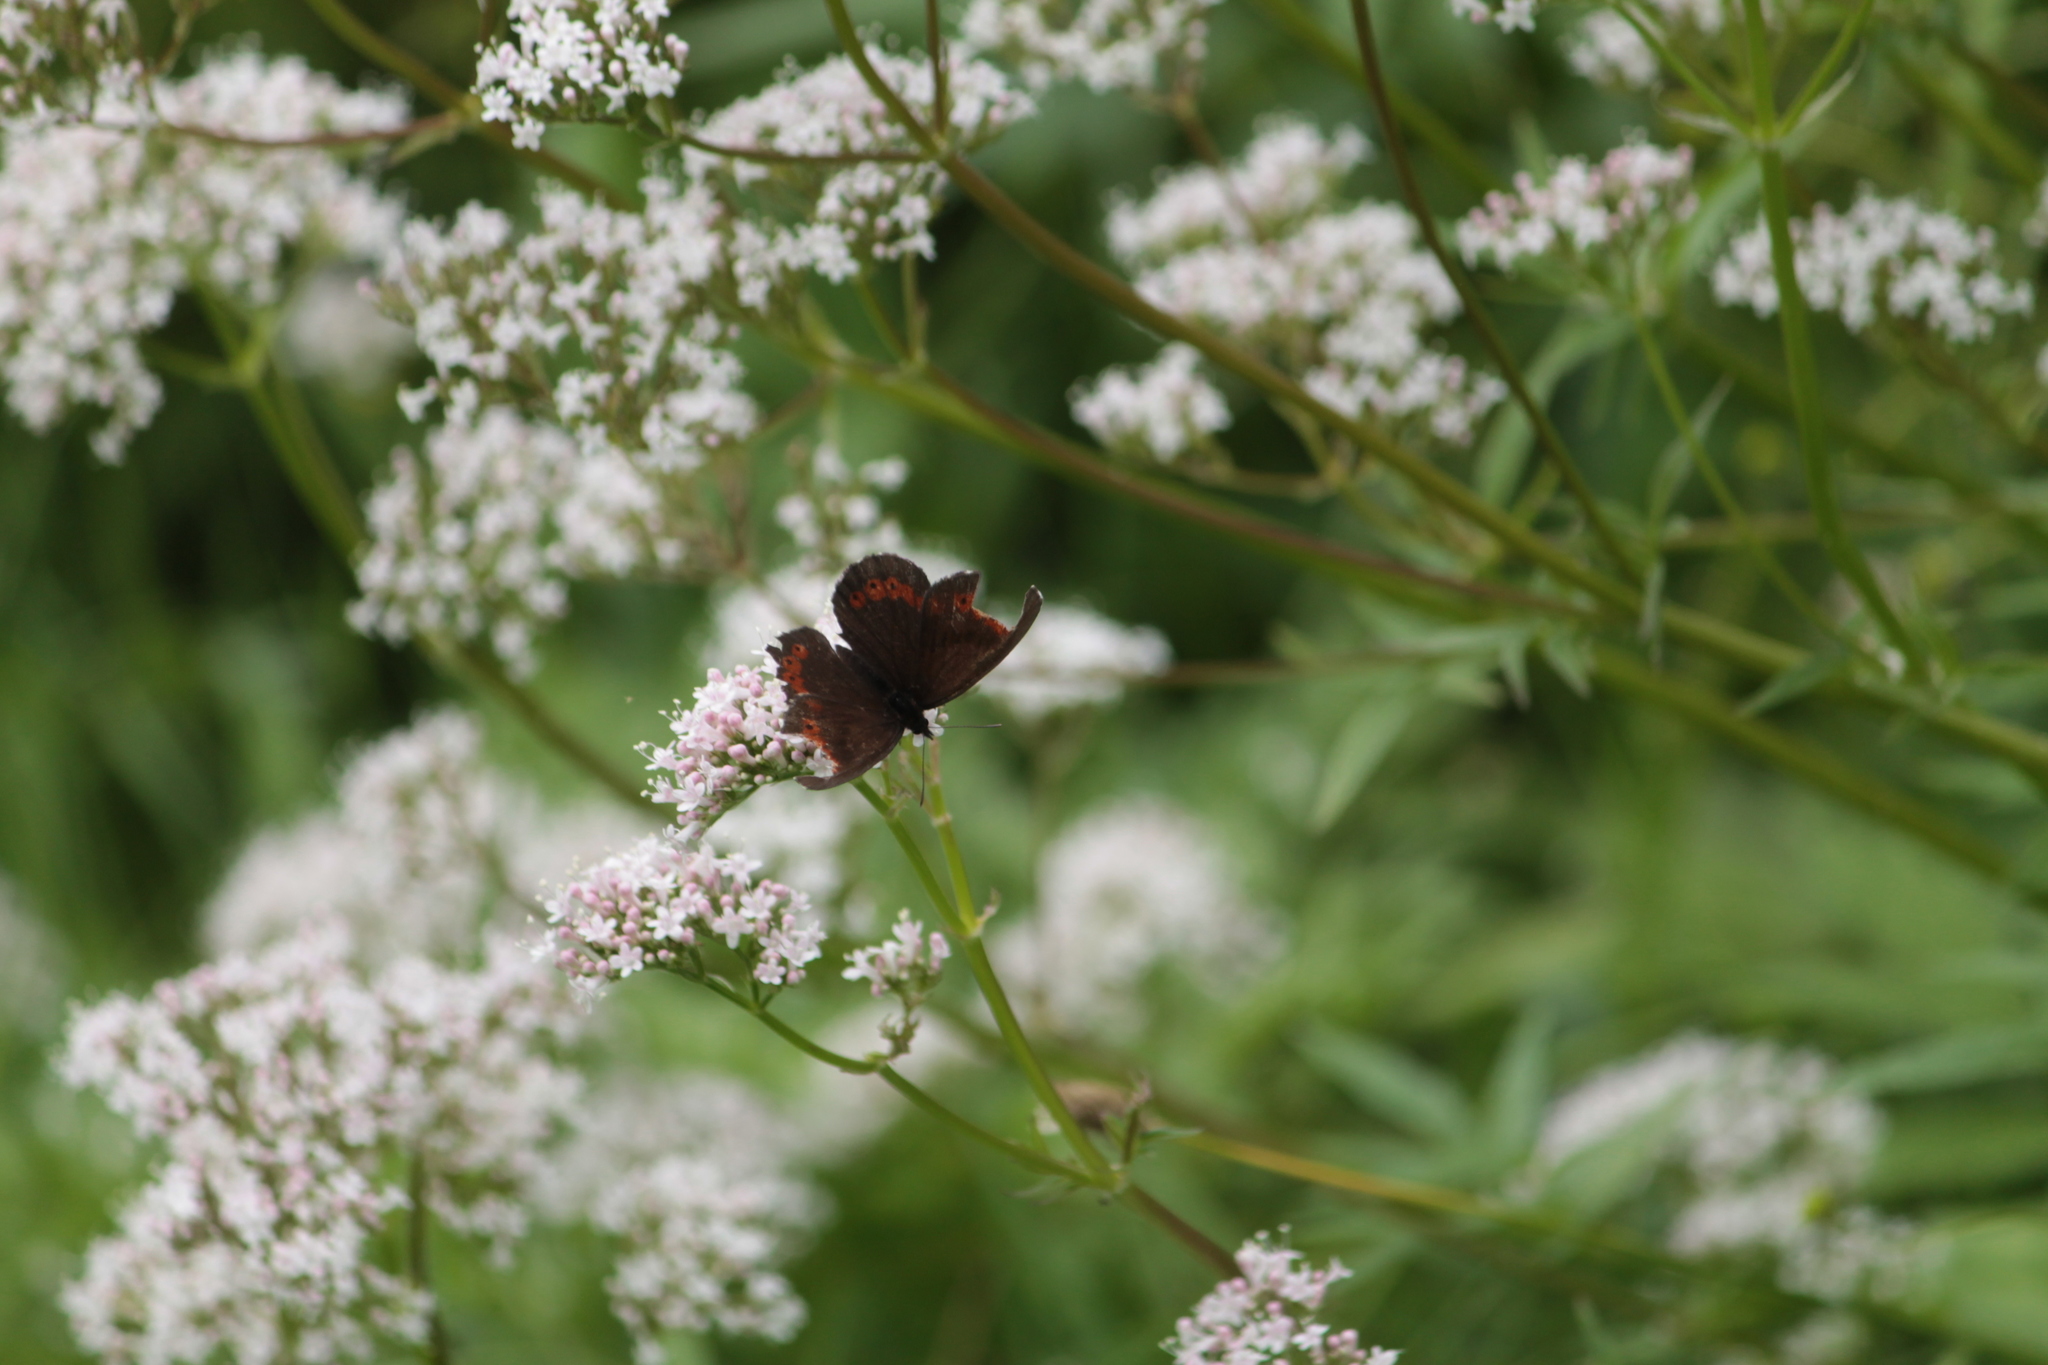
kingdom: Animalia
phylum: Arthropoda
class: Insecta
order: Lepidoptera
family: Nymphalidae
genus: Erebia
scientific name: Erebia ligea
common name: Arran brown
